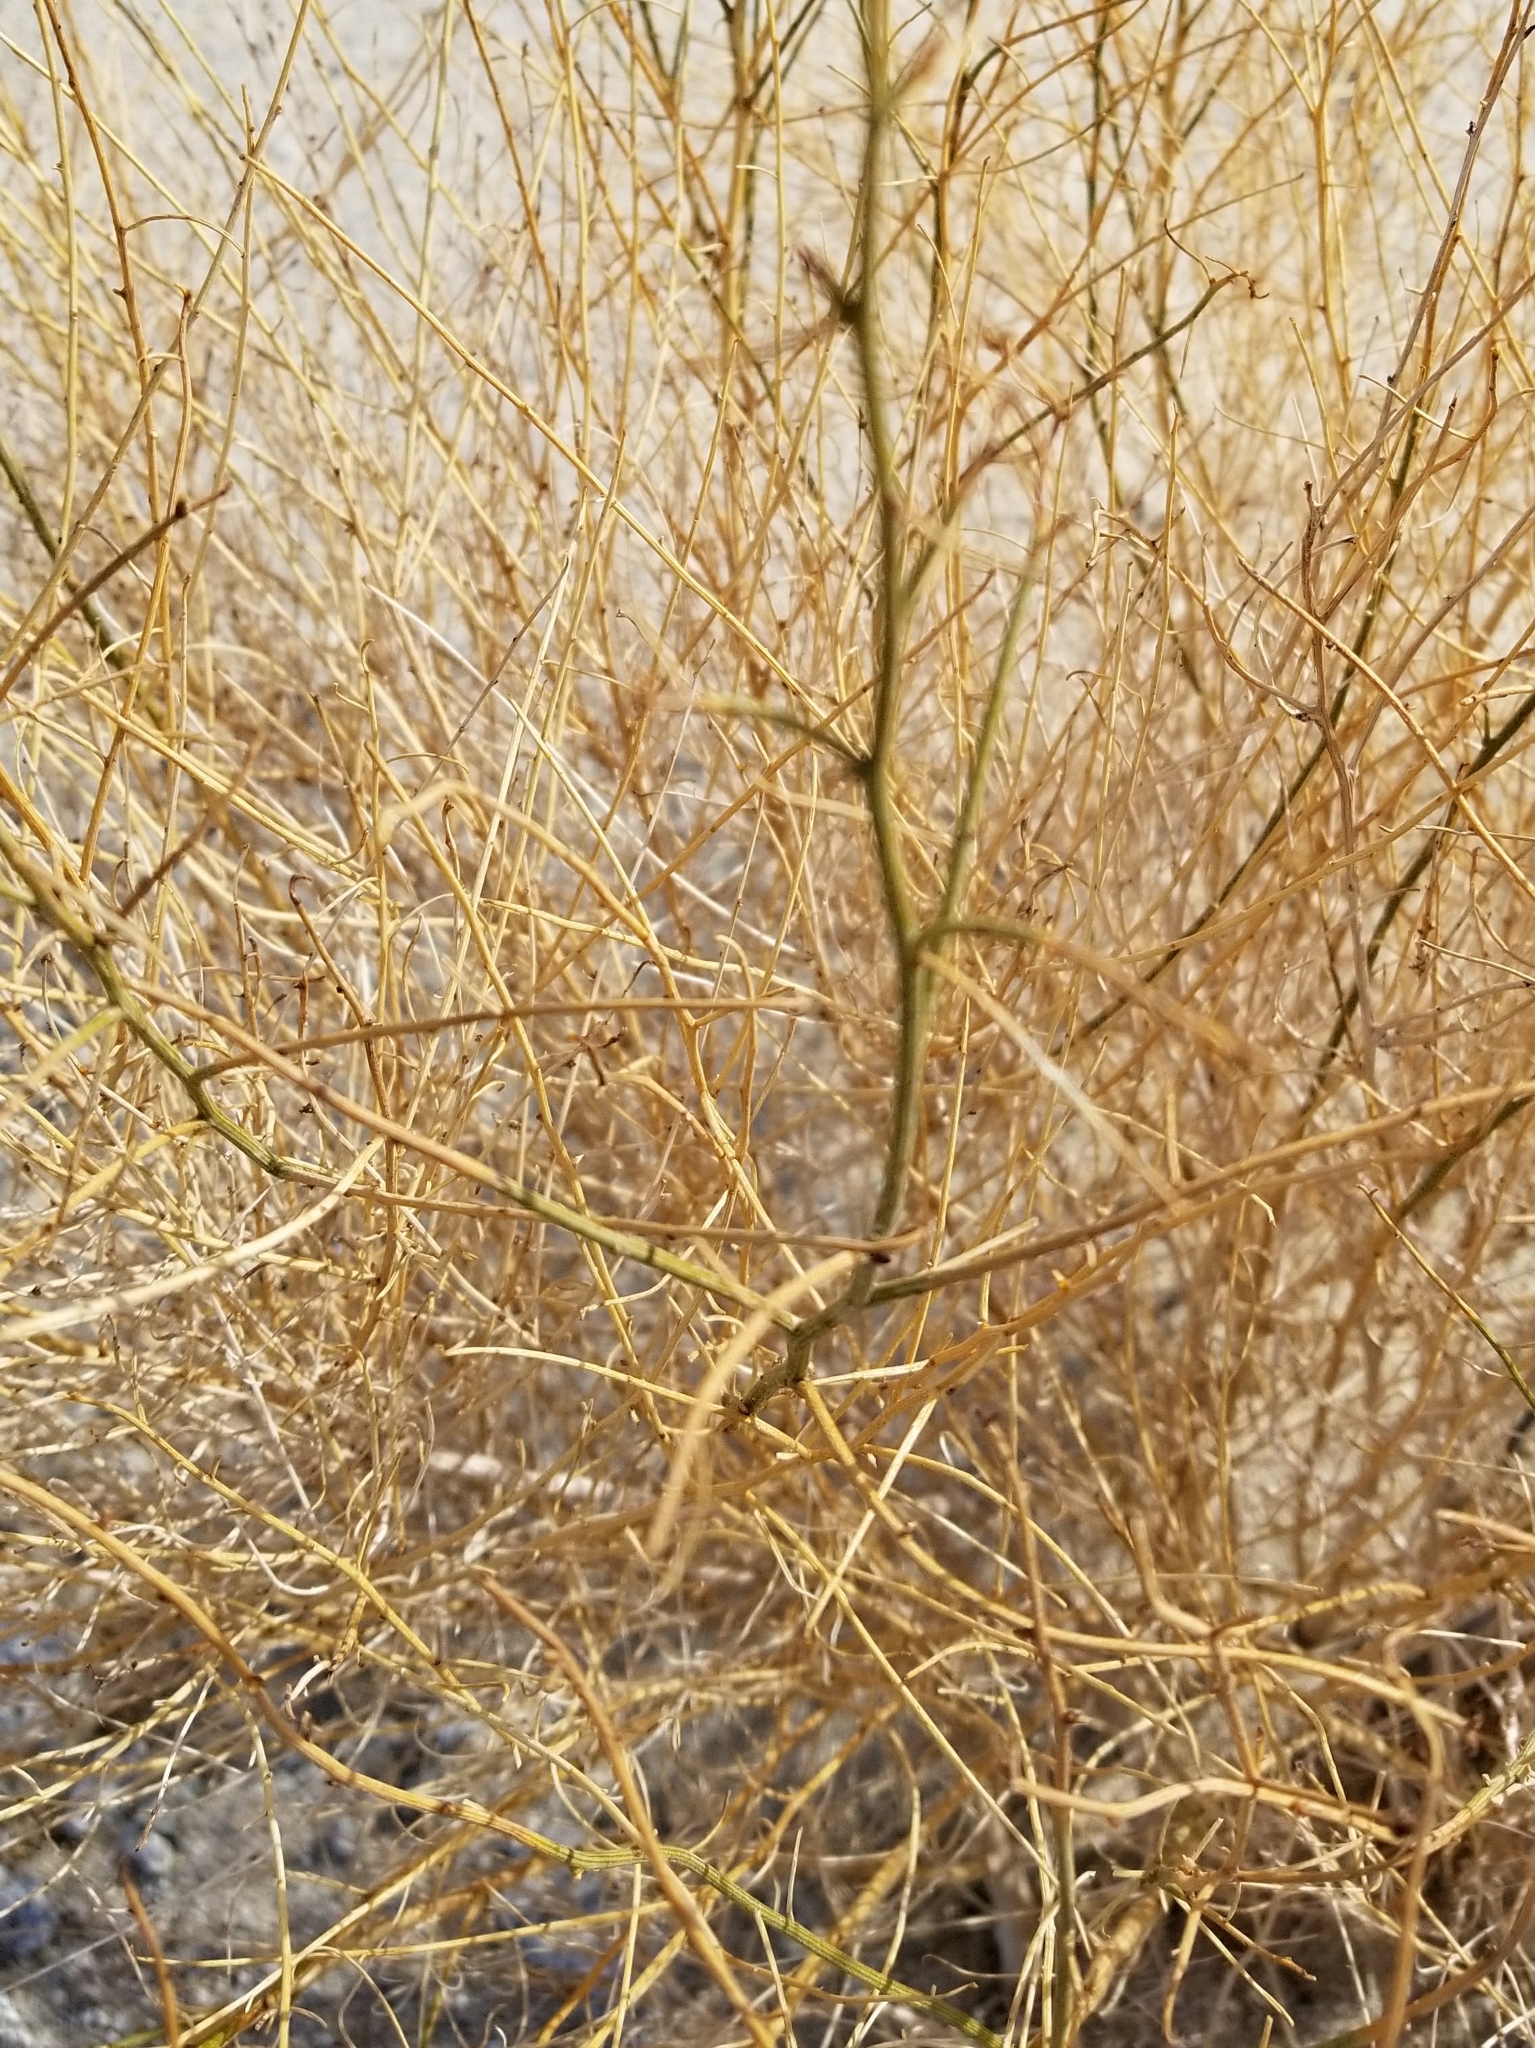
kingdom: Plantae
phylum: Tracheophyta
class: Magnoliopsida
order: Asterales
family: Asteraceae
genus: Ambrosia
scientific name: Ambrosia salsola
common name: Burrobrush
